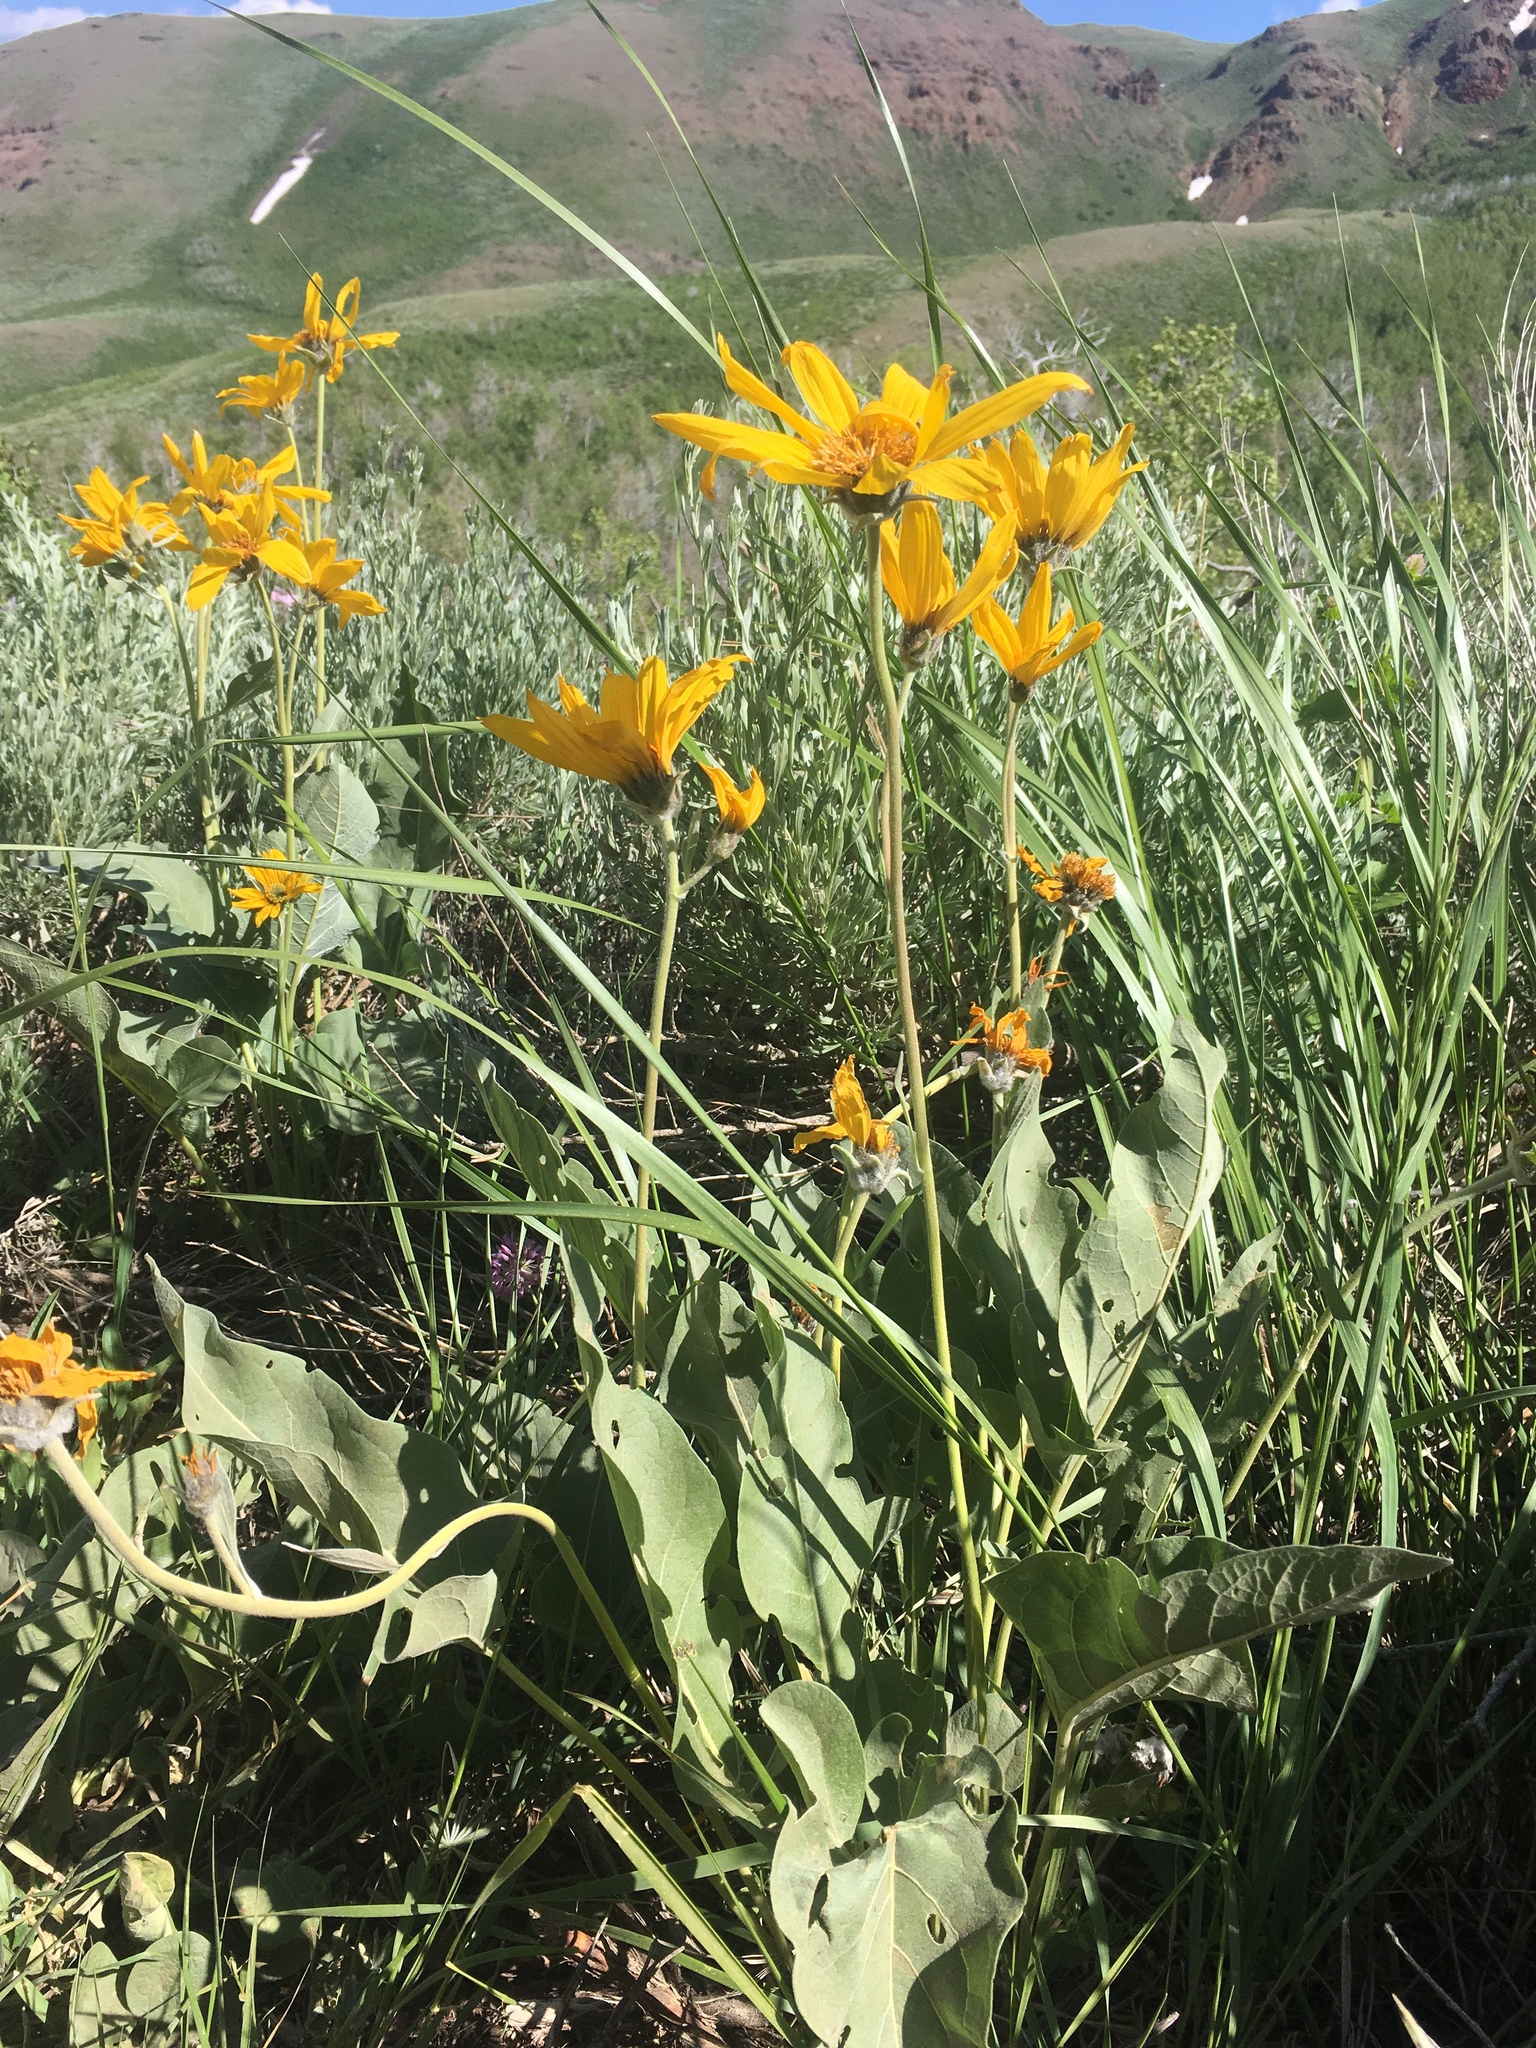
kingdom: Plantae
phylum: Tracheophyta
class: Magnoliopsida
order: Asterales
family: Asteraceae
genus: Wyethia
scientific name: Wyethia sagittata
